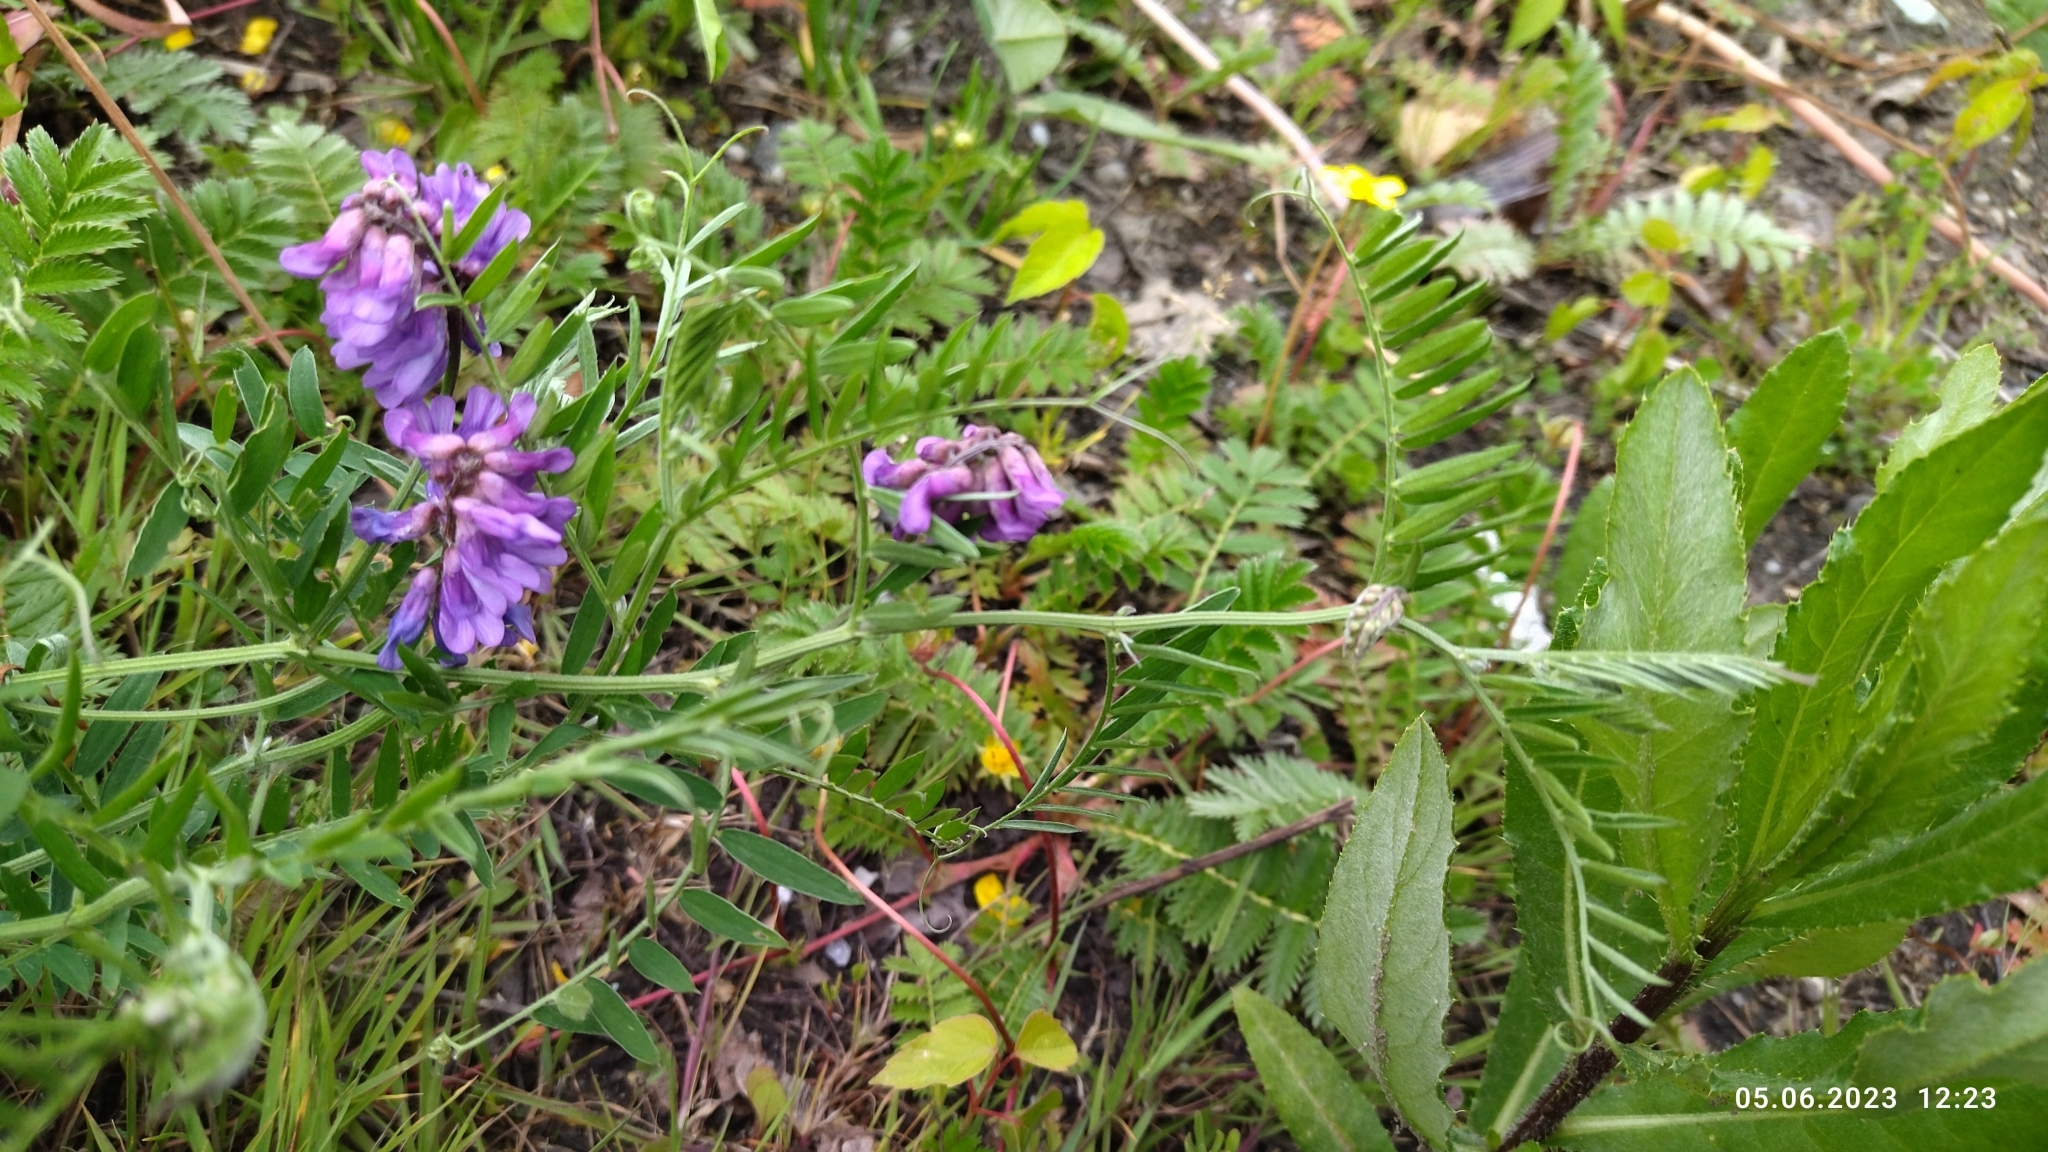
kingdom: Plantae
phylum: Tracheophyta
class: Magnoliopsida
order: Fabales
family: Fabaceae
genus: Vicia
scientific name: Vicia cracca
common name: Bird vetch
